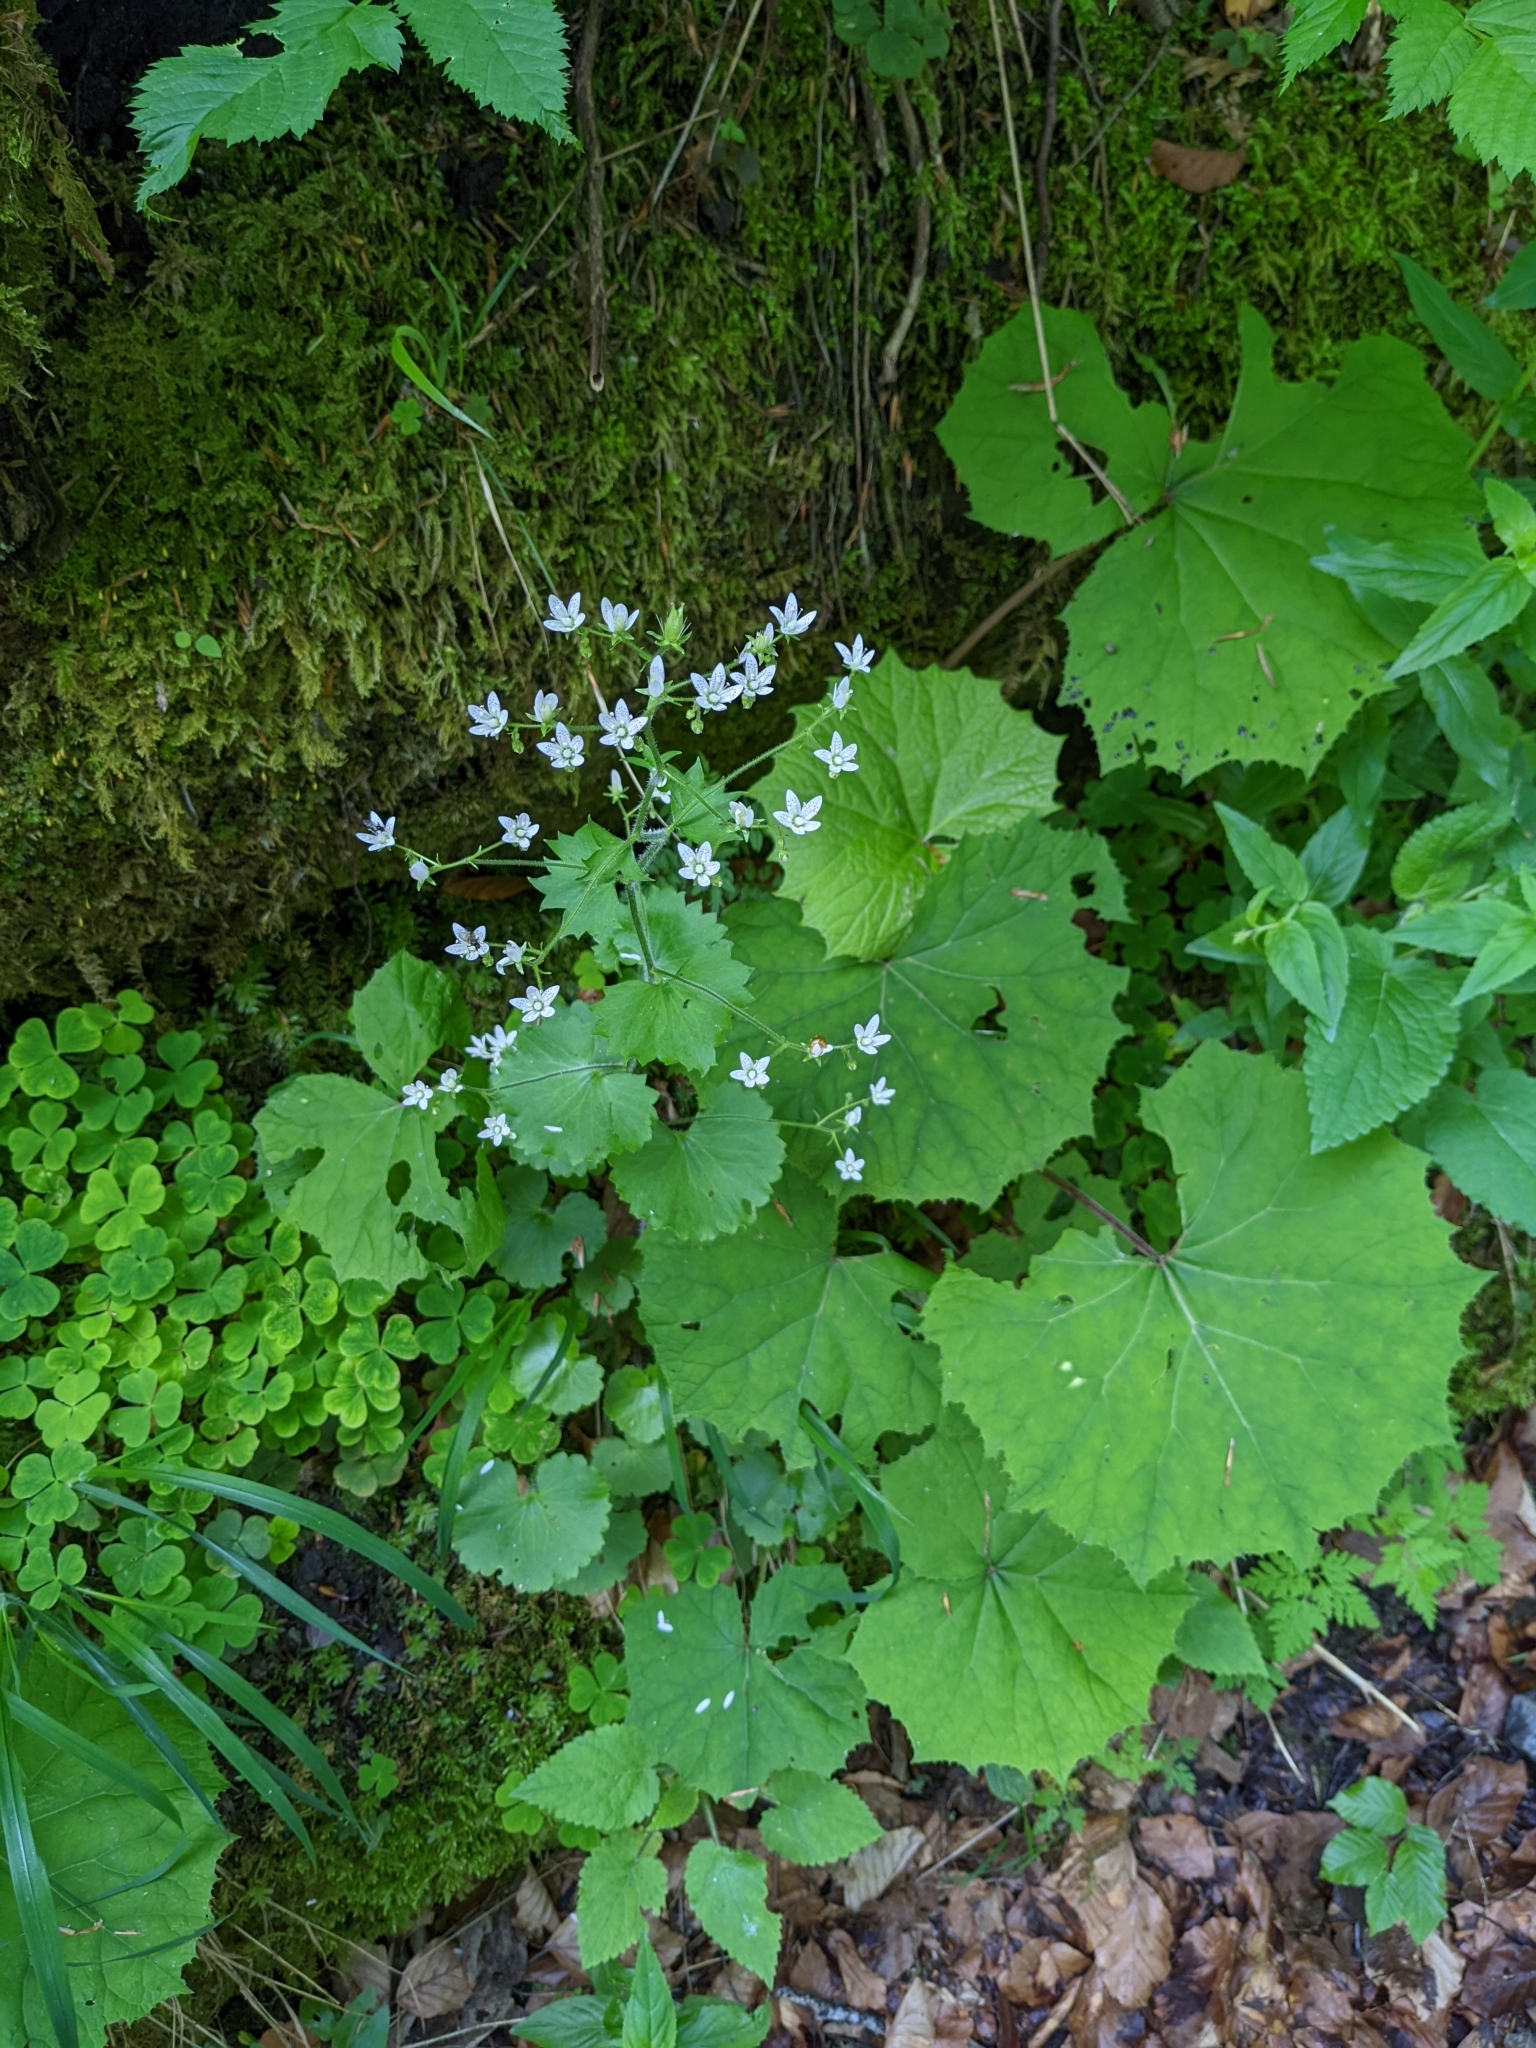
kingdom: Plantae
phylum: Tracheophyta
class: Magnoliopsida
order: Saxifragales
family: Saxifragaceae
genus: Saxifraga
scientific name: Saxifraga rotundifolia
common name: Round-leaved saxifrage
